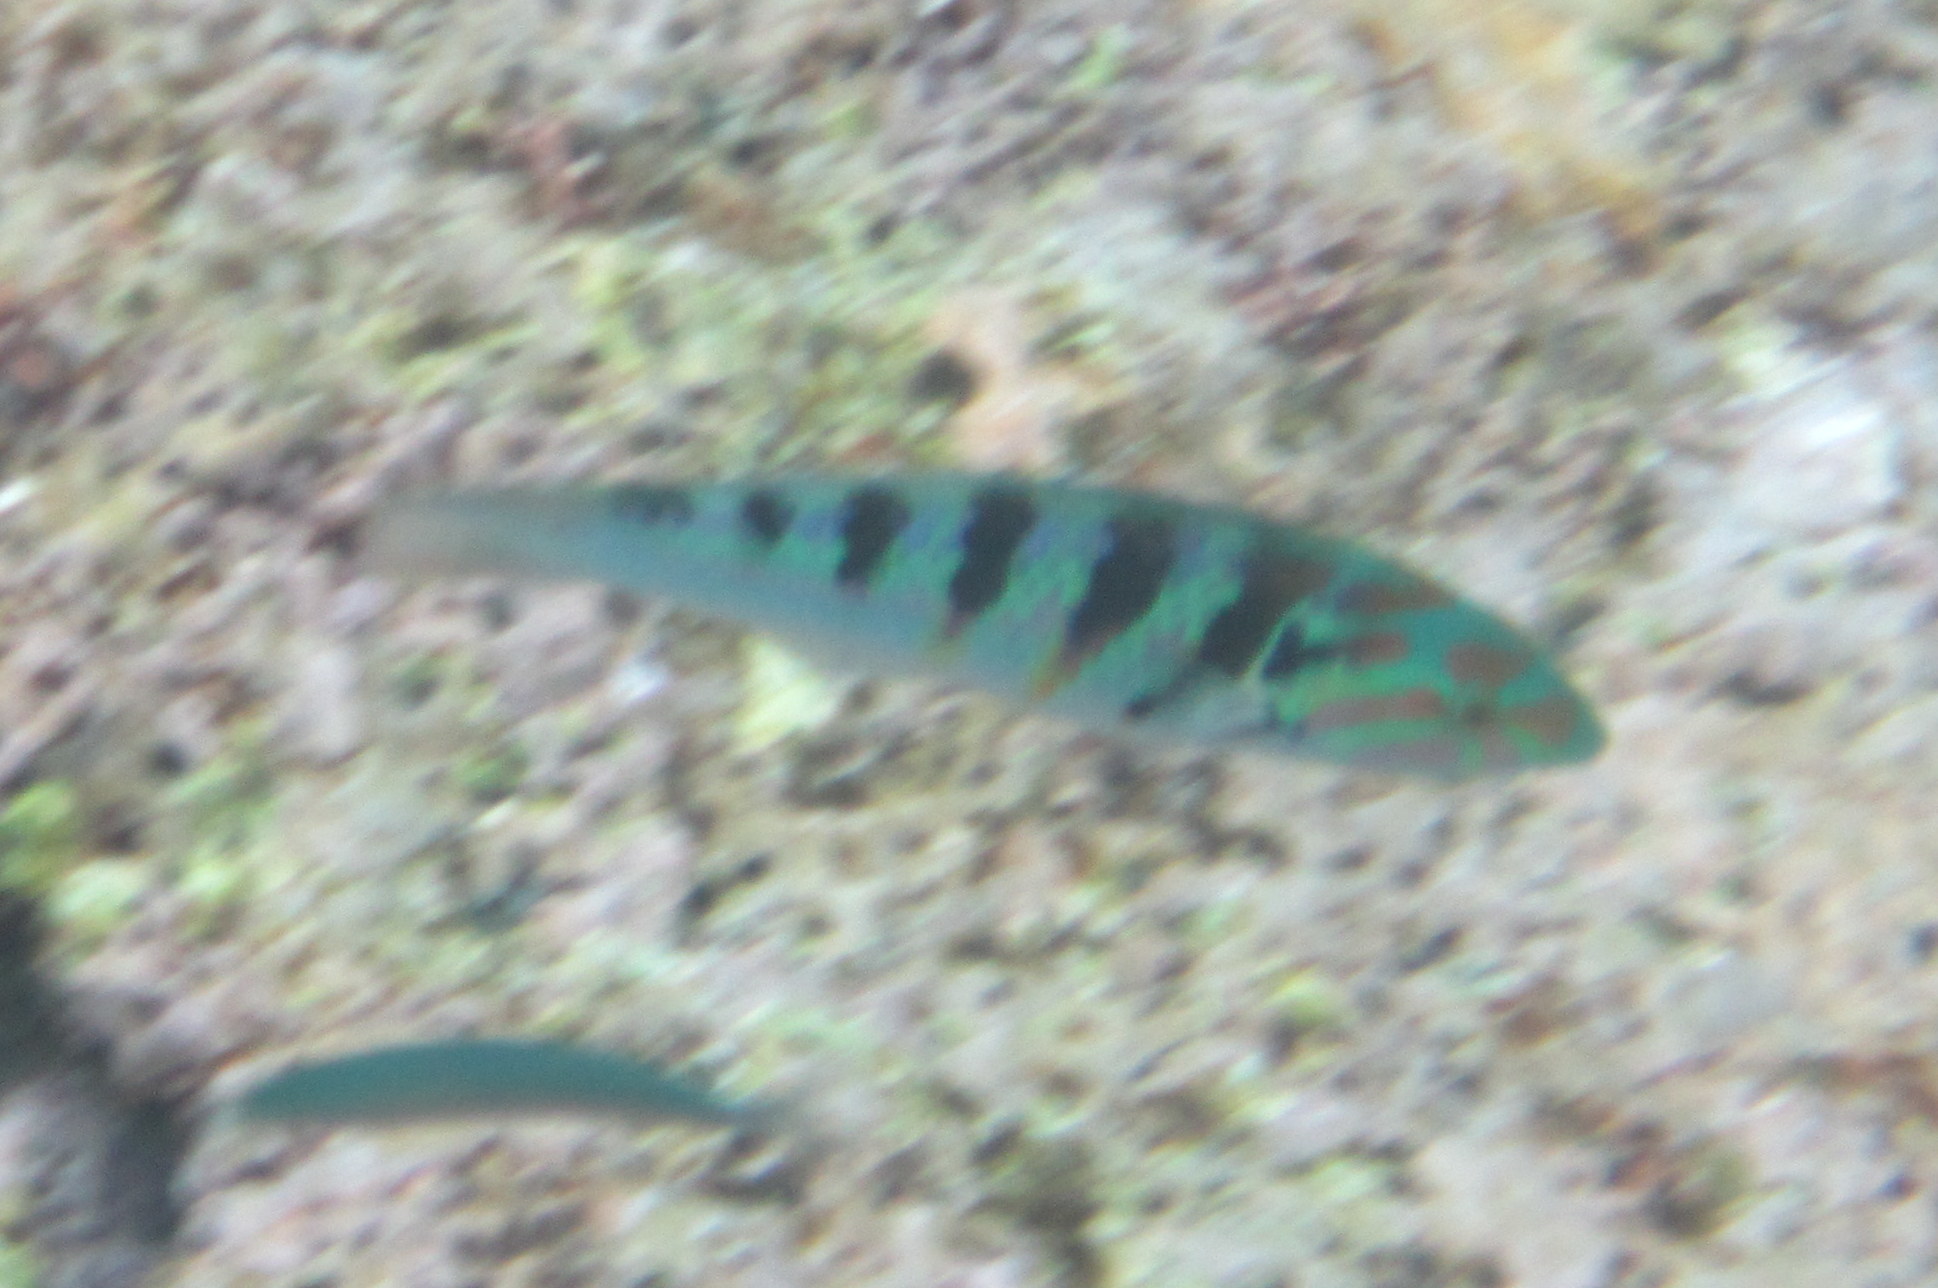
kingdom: Animalia
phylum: Chordata
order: Perciformes
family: Labridae
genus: Thalassoma
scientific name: Thalassoma hardwicke
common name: Sixbar wrasse
